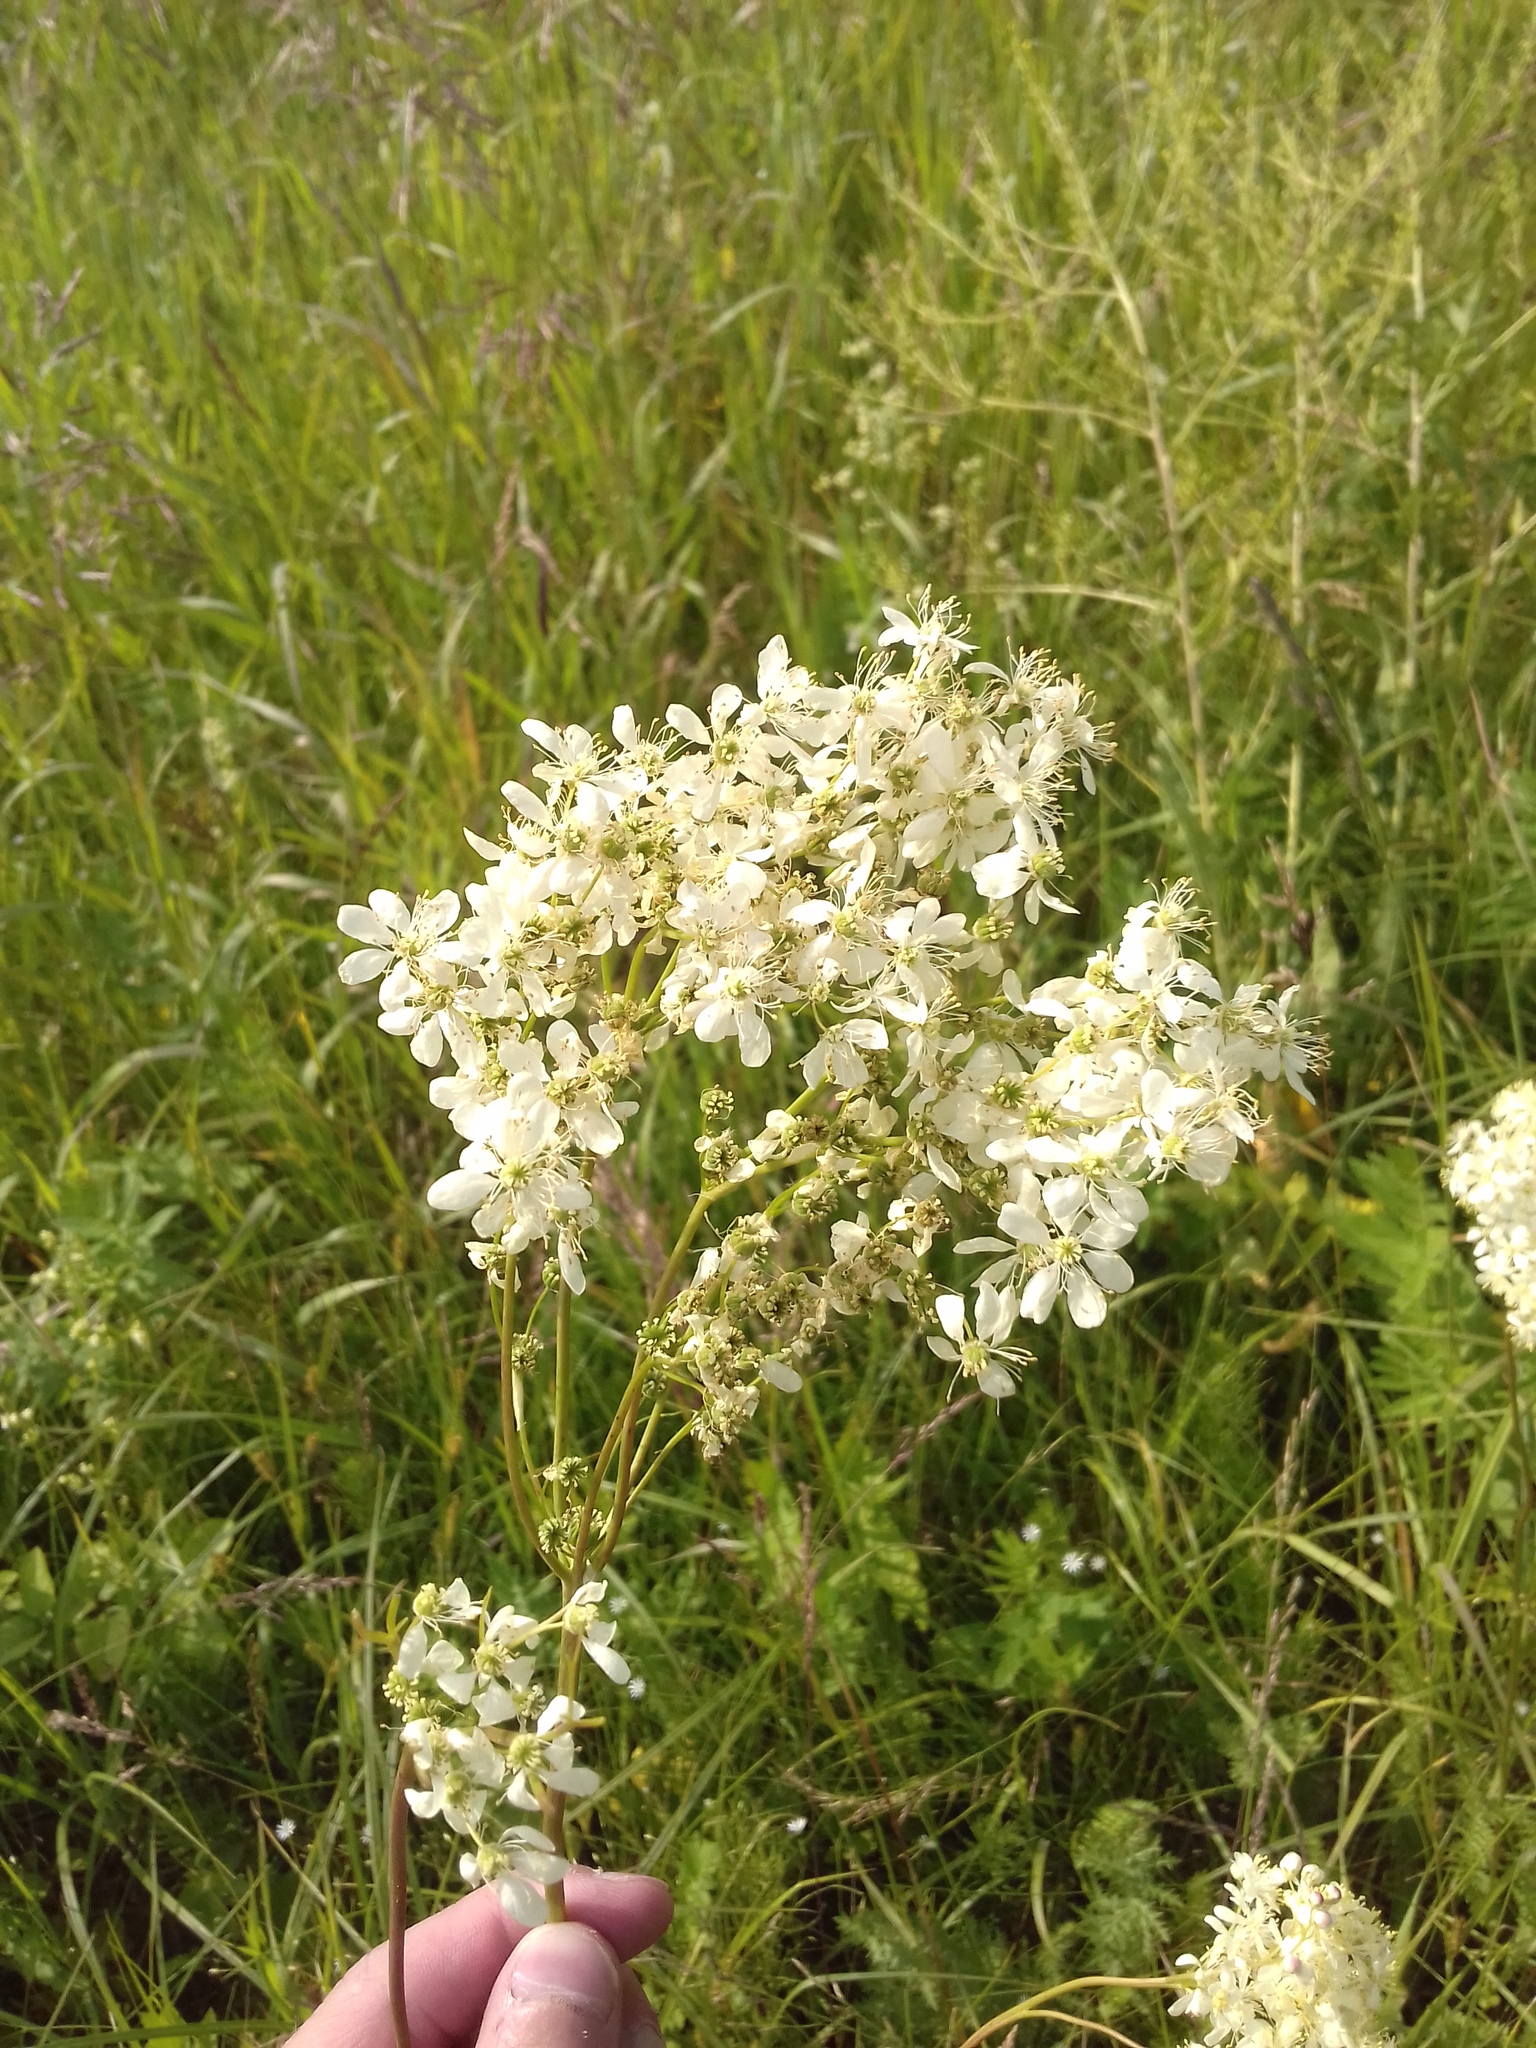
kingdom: Plantae
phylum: Tracheophyta
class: Magnoliopsida
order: Rosales
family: Rosaceae
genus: Filipendula
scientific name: Filipendula vulgaris
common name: Dropwort
